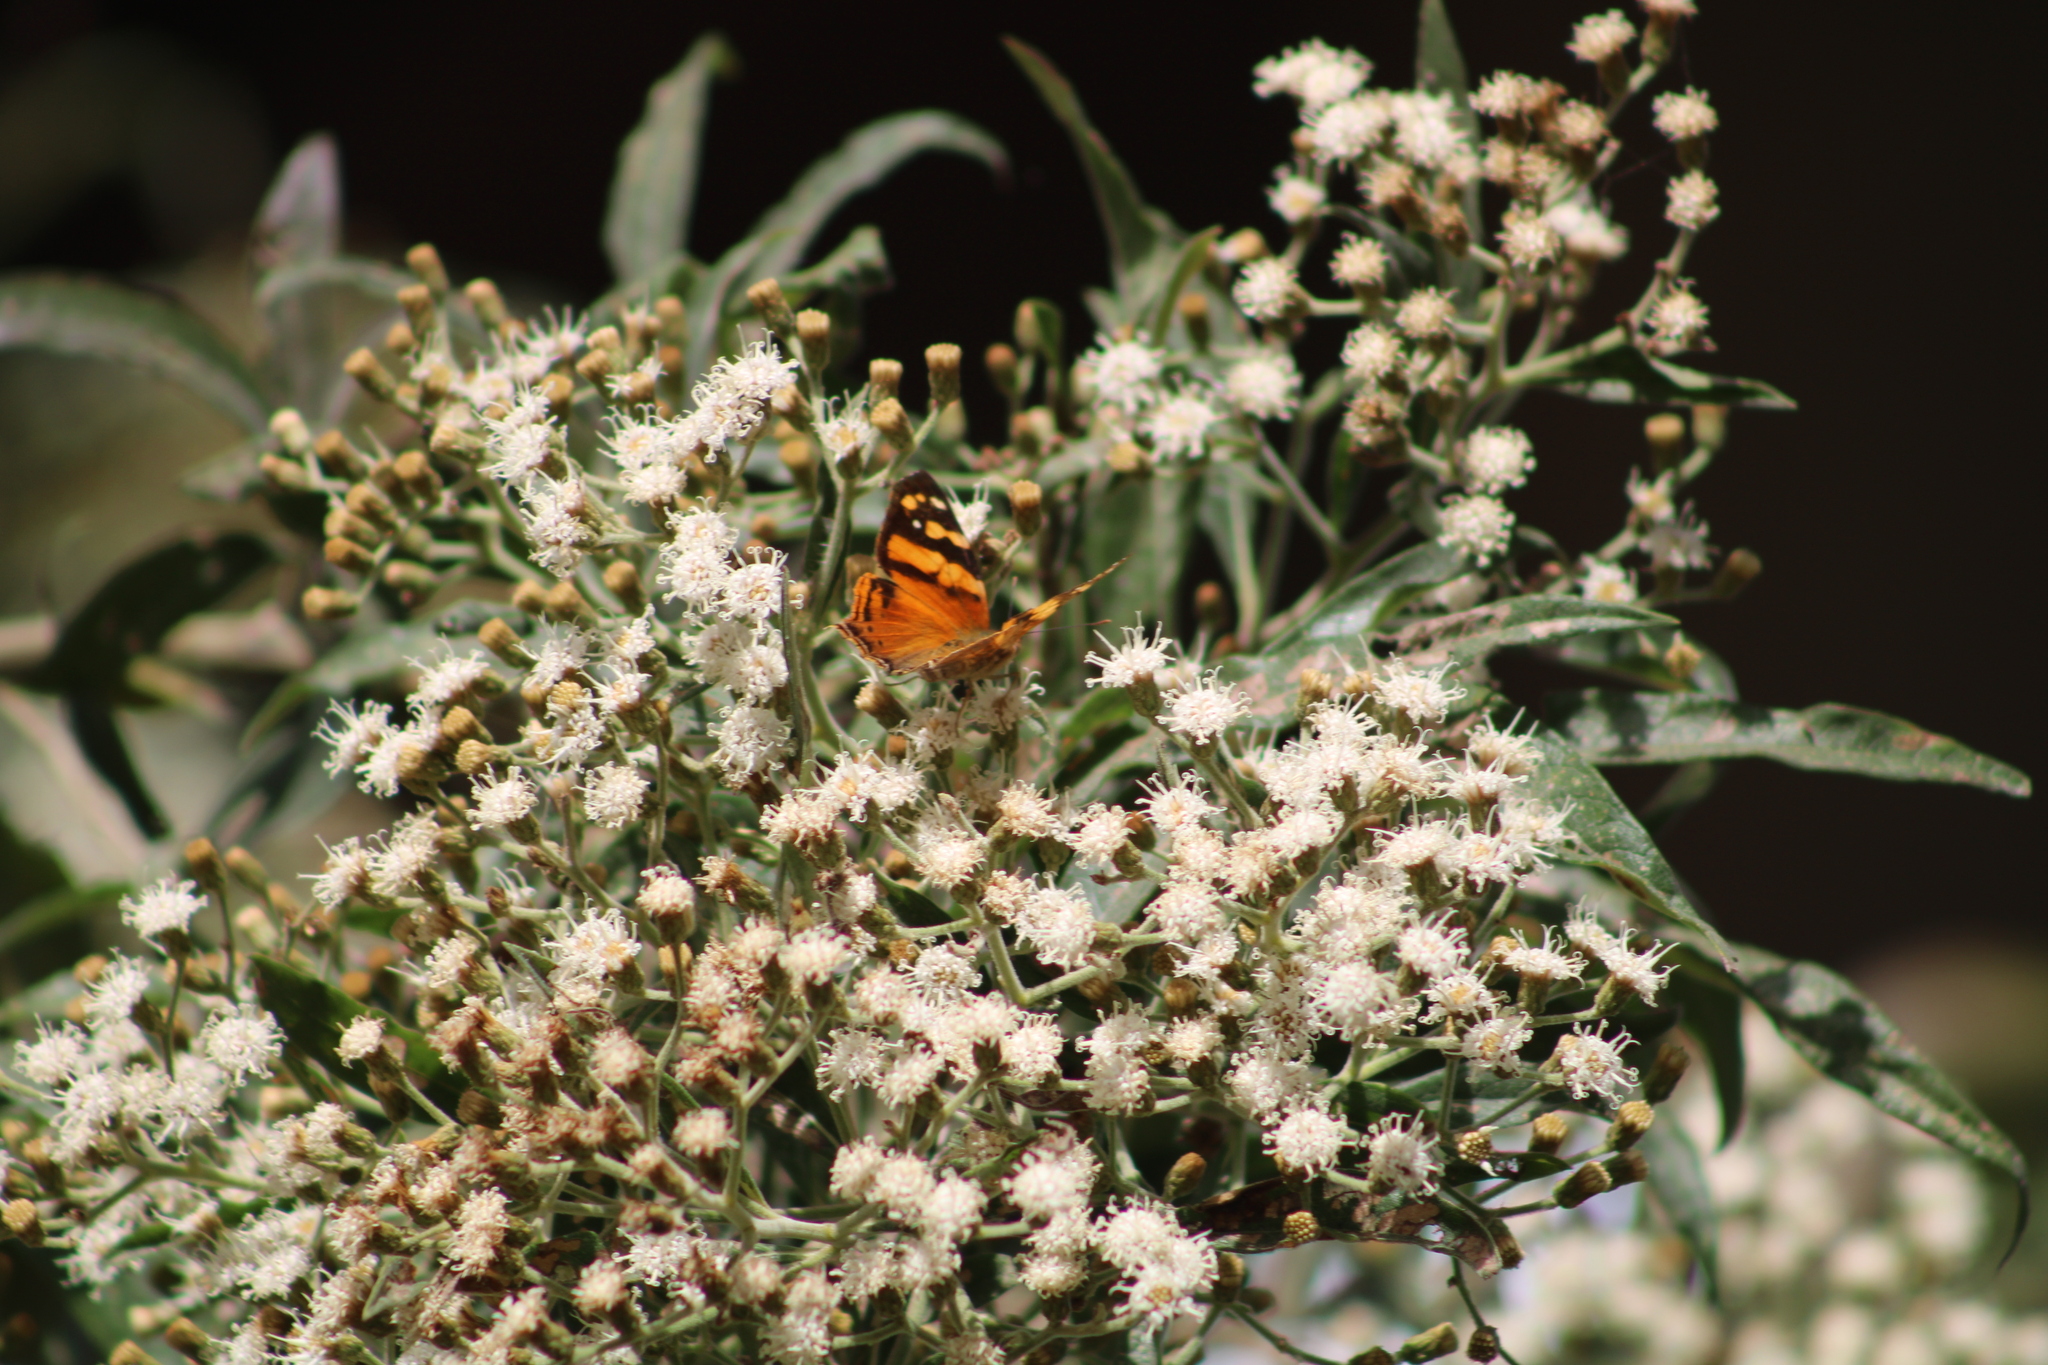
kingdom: Animalia
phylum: Arthropoda
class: Insecta
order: Lepidoptera
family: Nymphalidae
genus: Hypanartia
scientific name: Hypanartia lethe
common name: Orange mapwing
